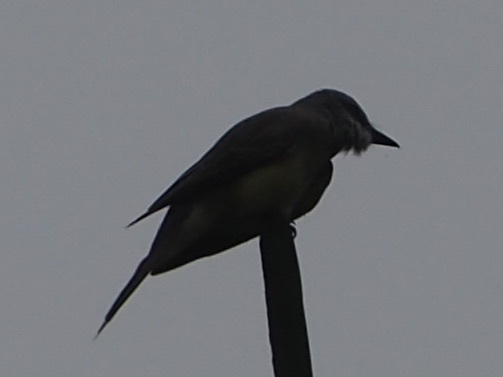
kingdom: Animalia
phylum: Chordata
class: Aves
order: Passeriformes
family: Tyrannidae
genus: Tyrannus
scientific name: Tyrannus melancholicus
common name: Tropical kingbird
